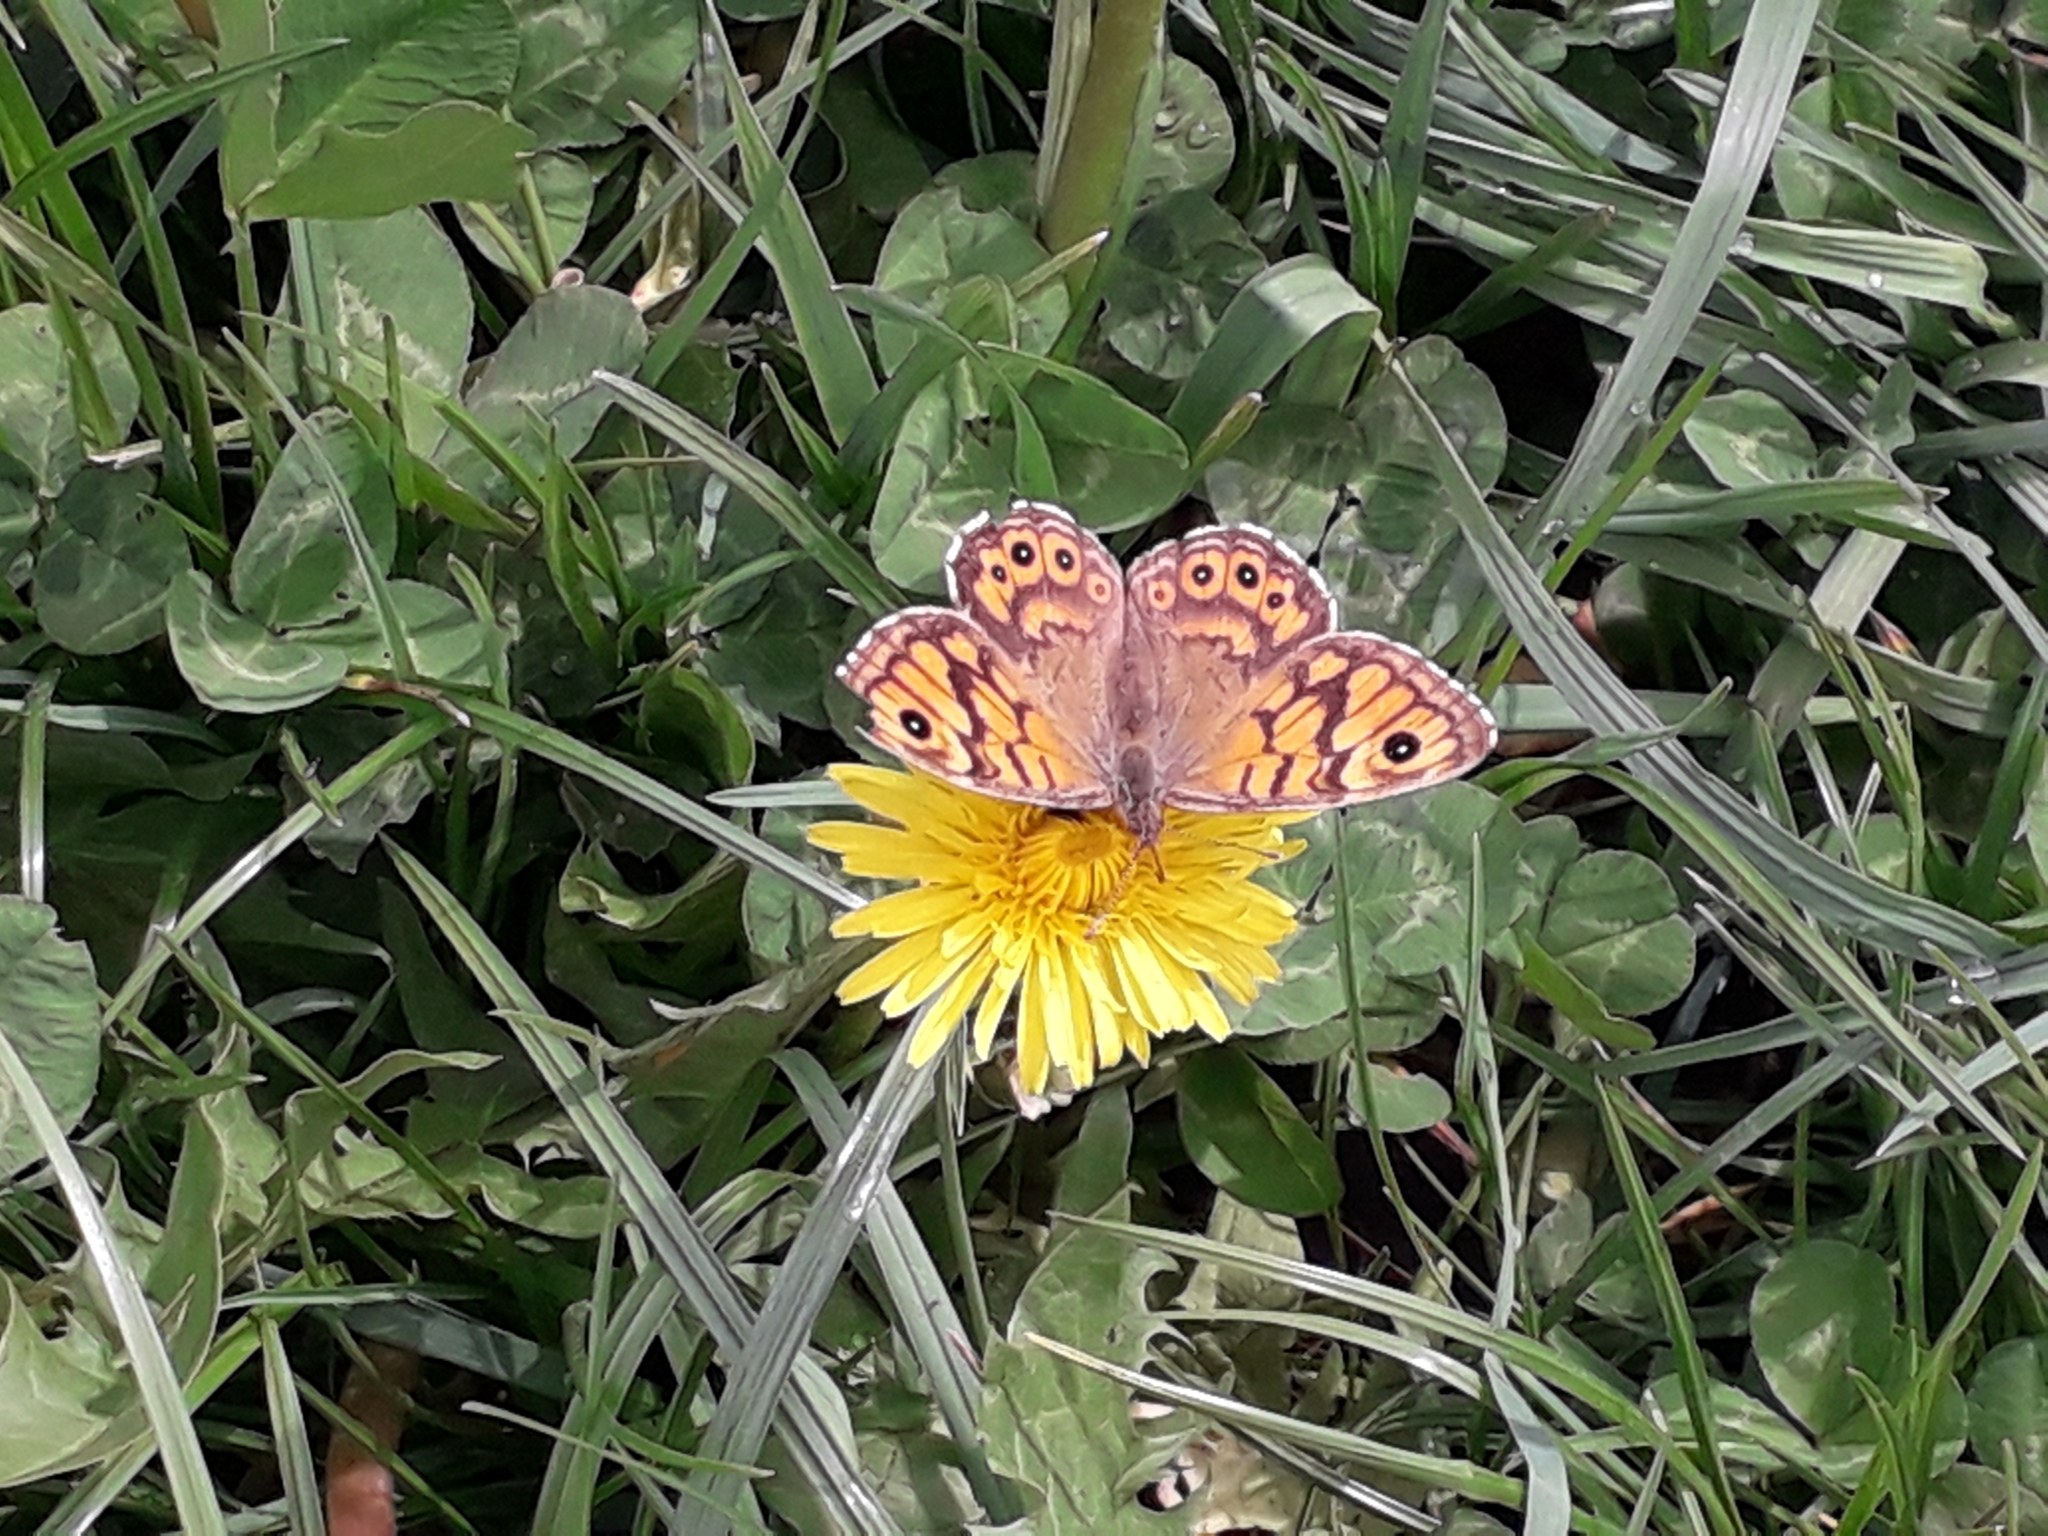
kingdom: Animalia
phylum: Arthropoda
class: Insecta
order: Lepidoptera
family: Nymphalidae
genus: Pararge
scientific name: Pararge Lasiommata megera
